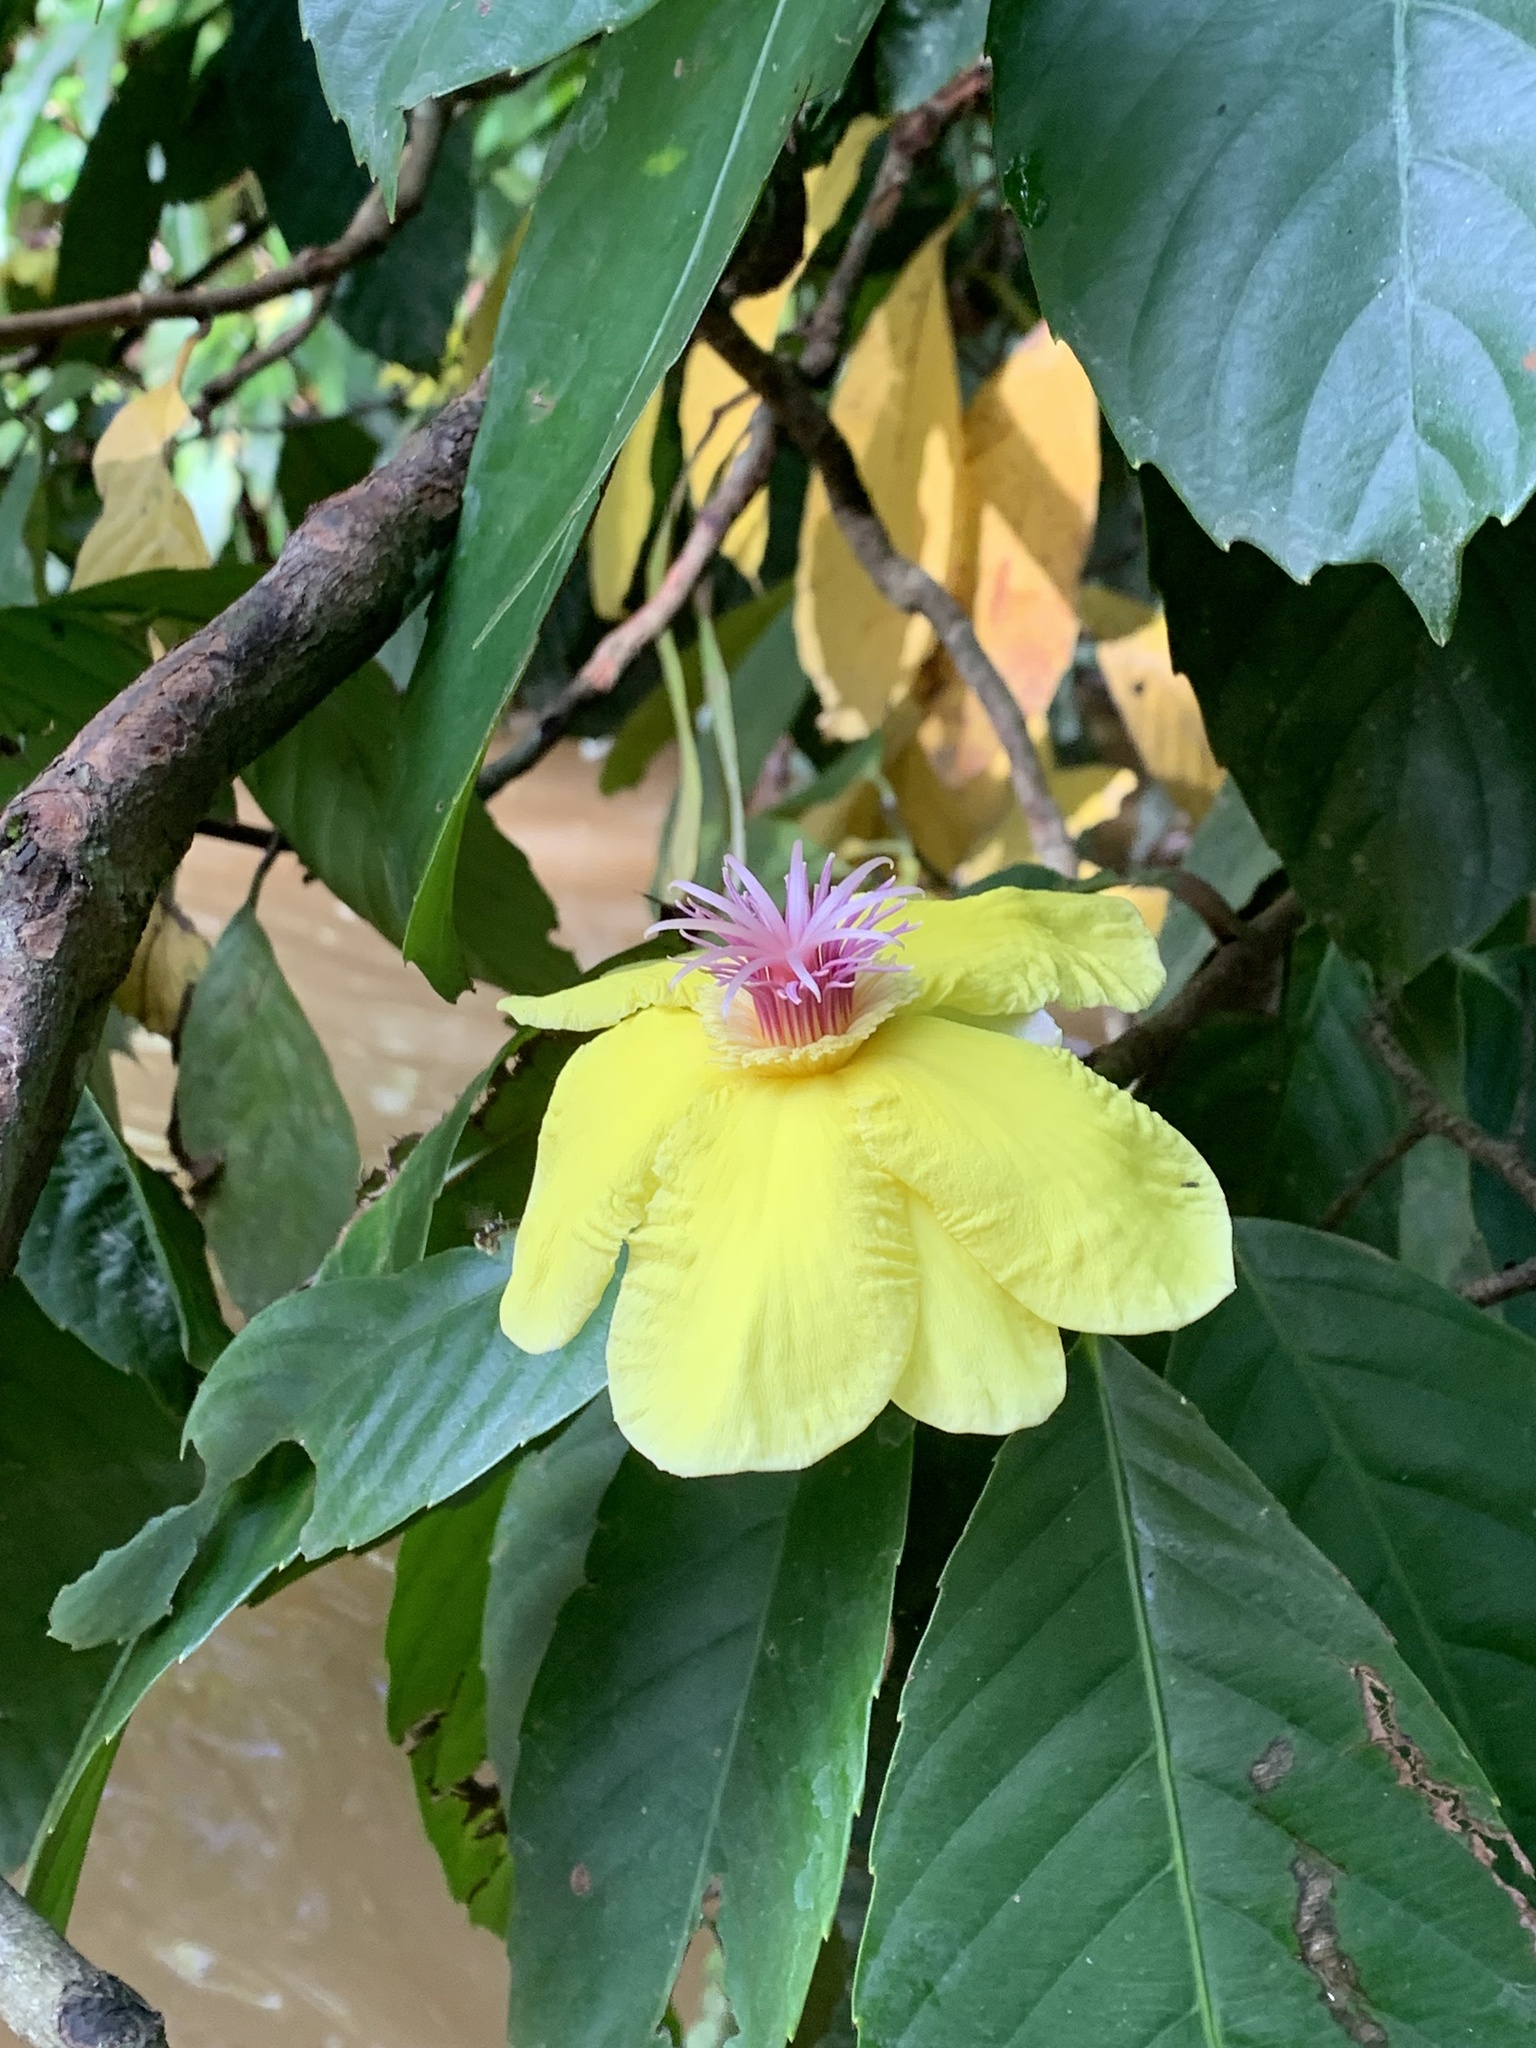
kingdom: Plantae
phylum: Tracheophyta
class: Magnoliopsida
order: Dilleniales
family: Dilleniaceae
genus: Dillenia
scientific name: Dillenia excelsa
